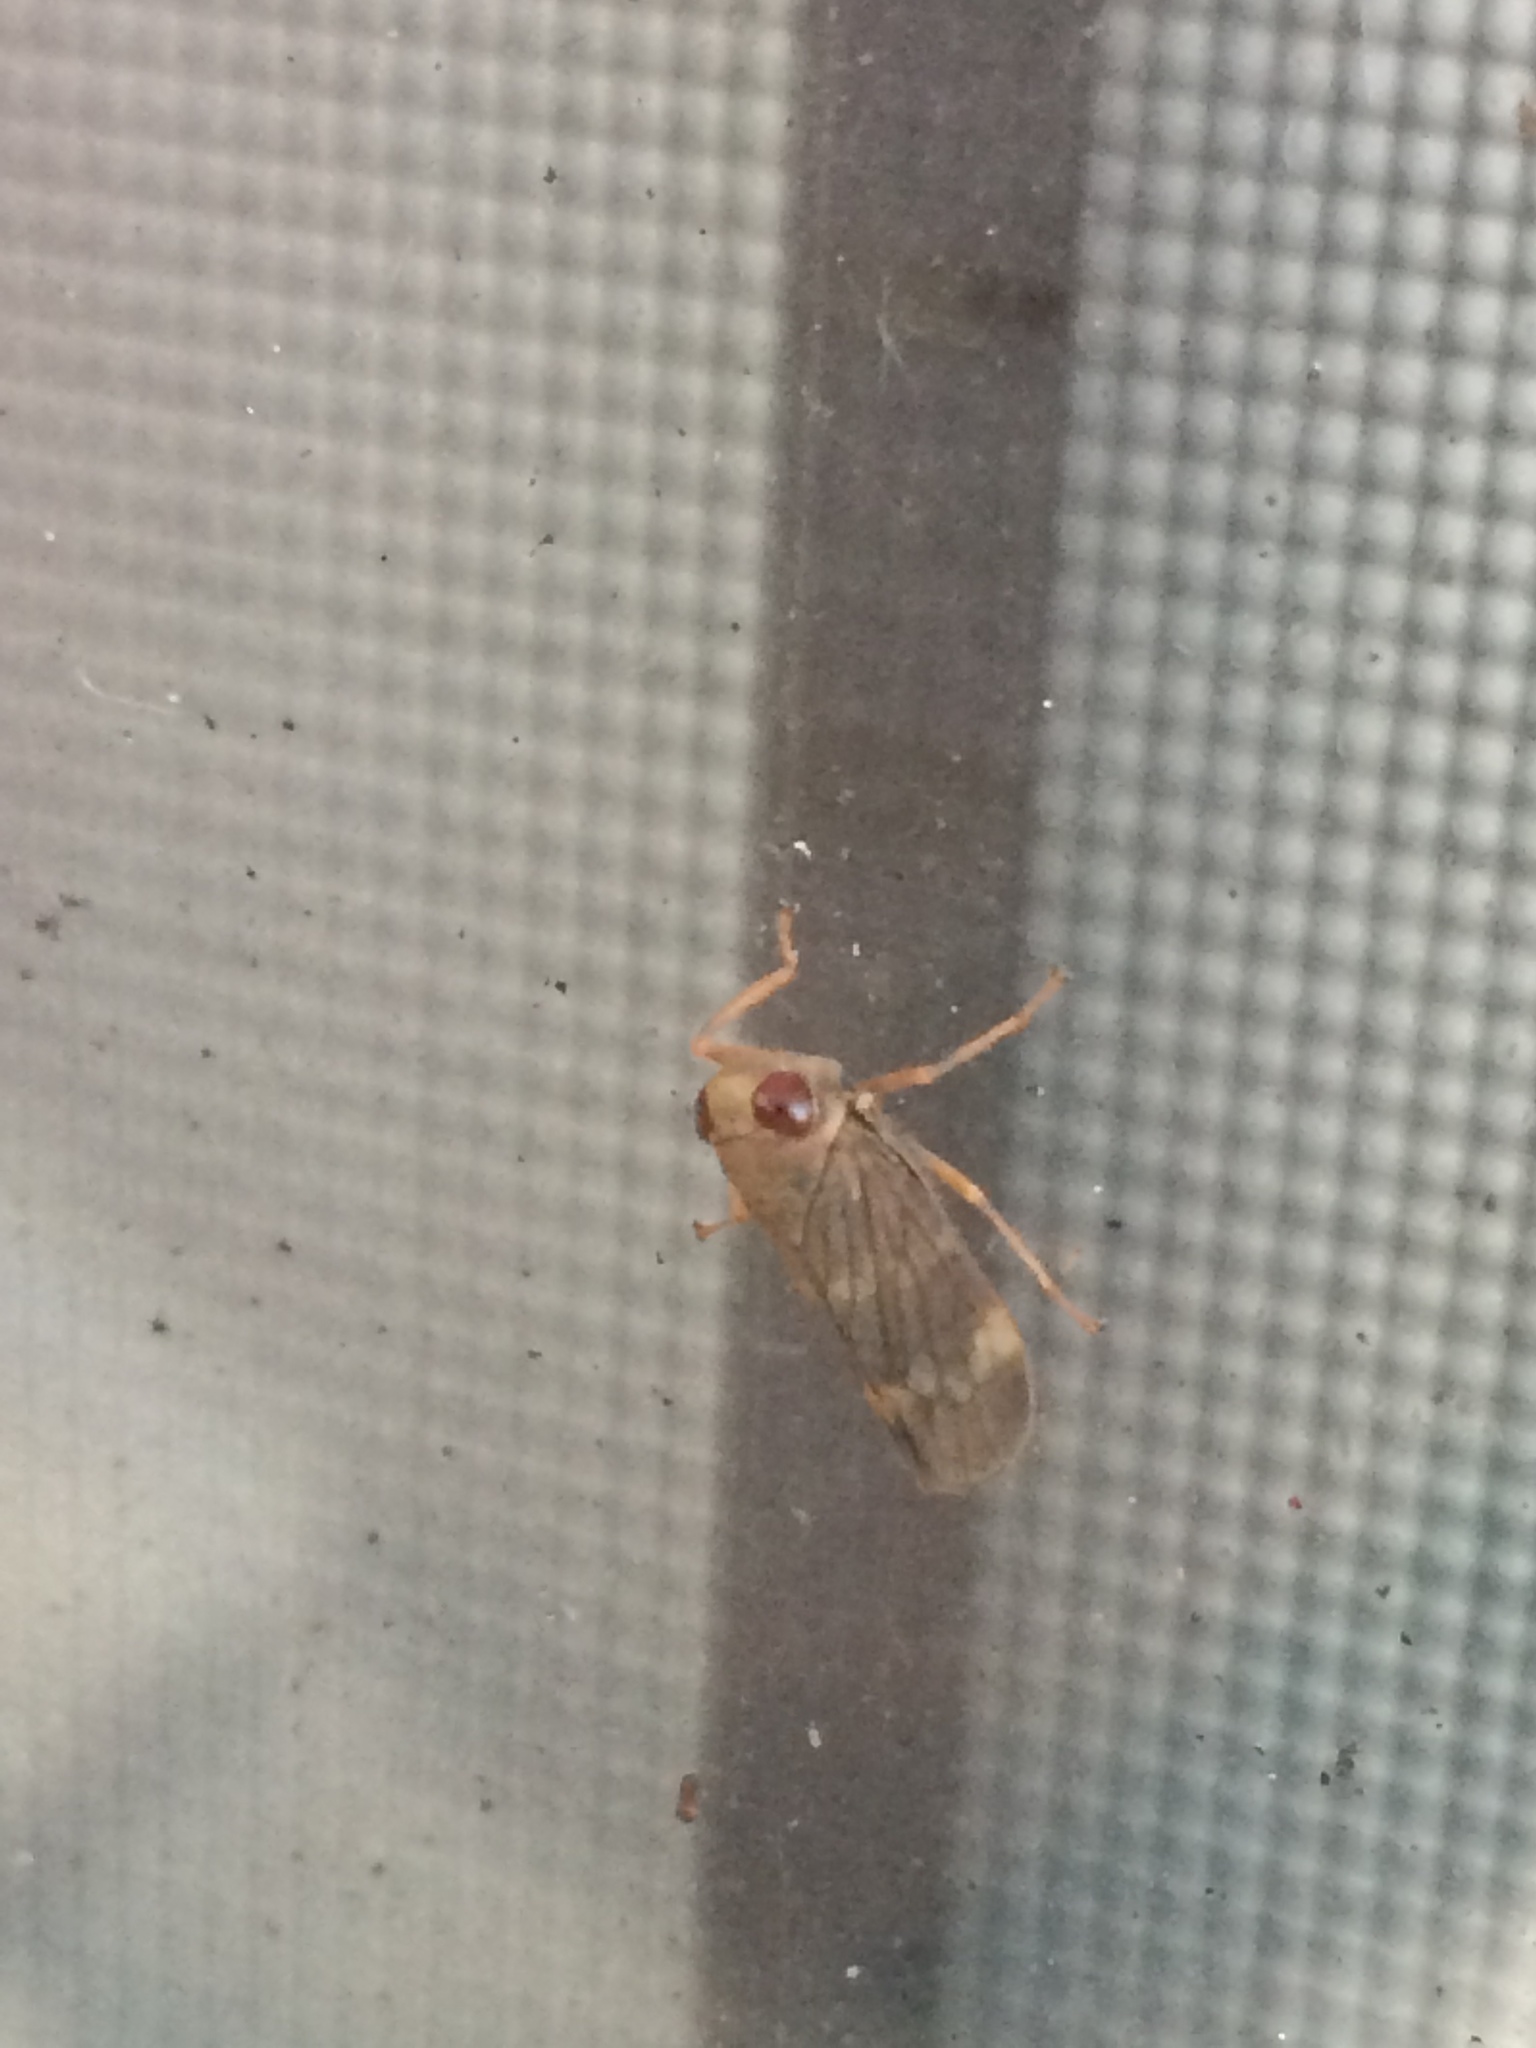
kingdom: Animalia
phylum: Arthropoda
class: Insecta
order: Hemiptera
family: Cicadellidae
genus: Jikradia
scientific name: Jikradia olitoria
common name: Coppery leafhopper
